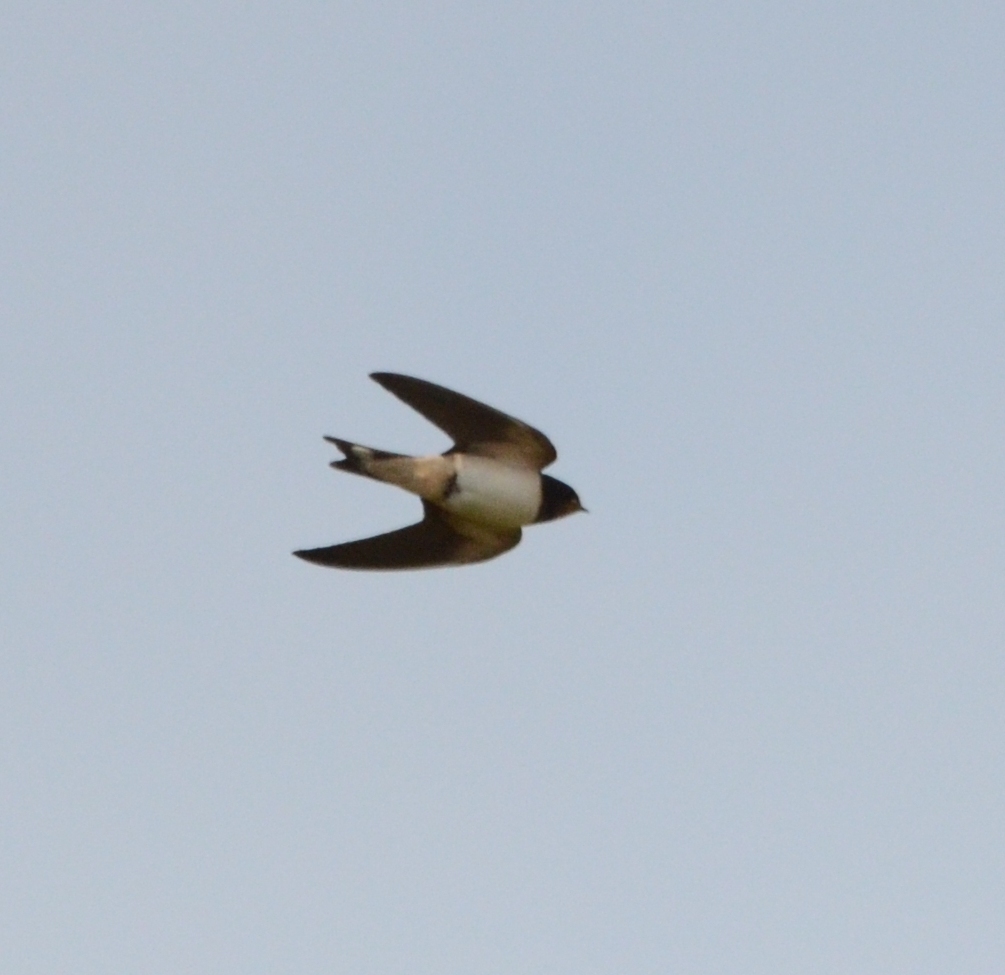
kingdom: Animalia
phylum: Chordata
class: Aves
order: Passeriformes
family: Hirundinidae
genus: Hirundo
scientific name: Hirundo rustica
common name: Barn swallow
